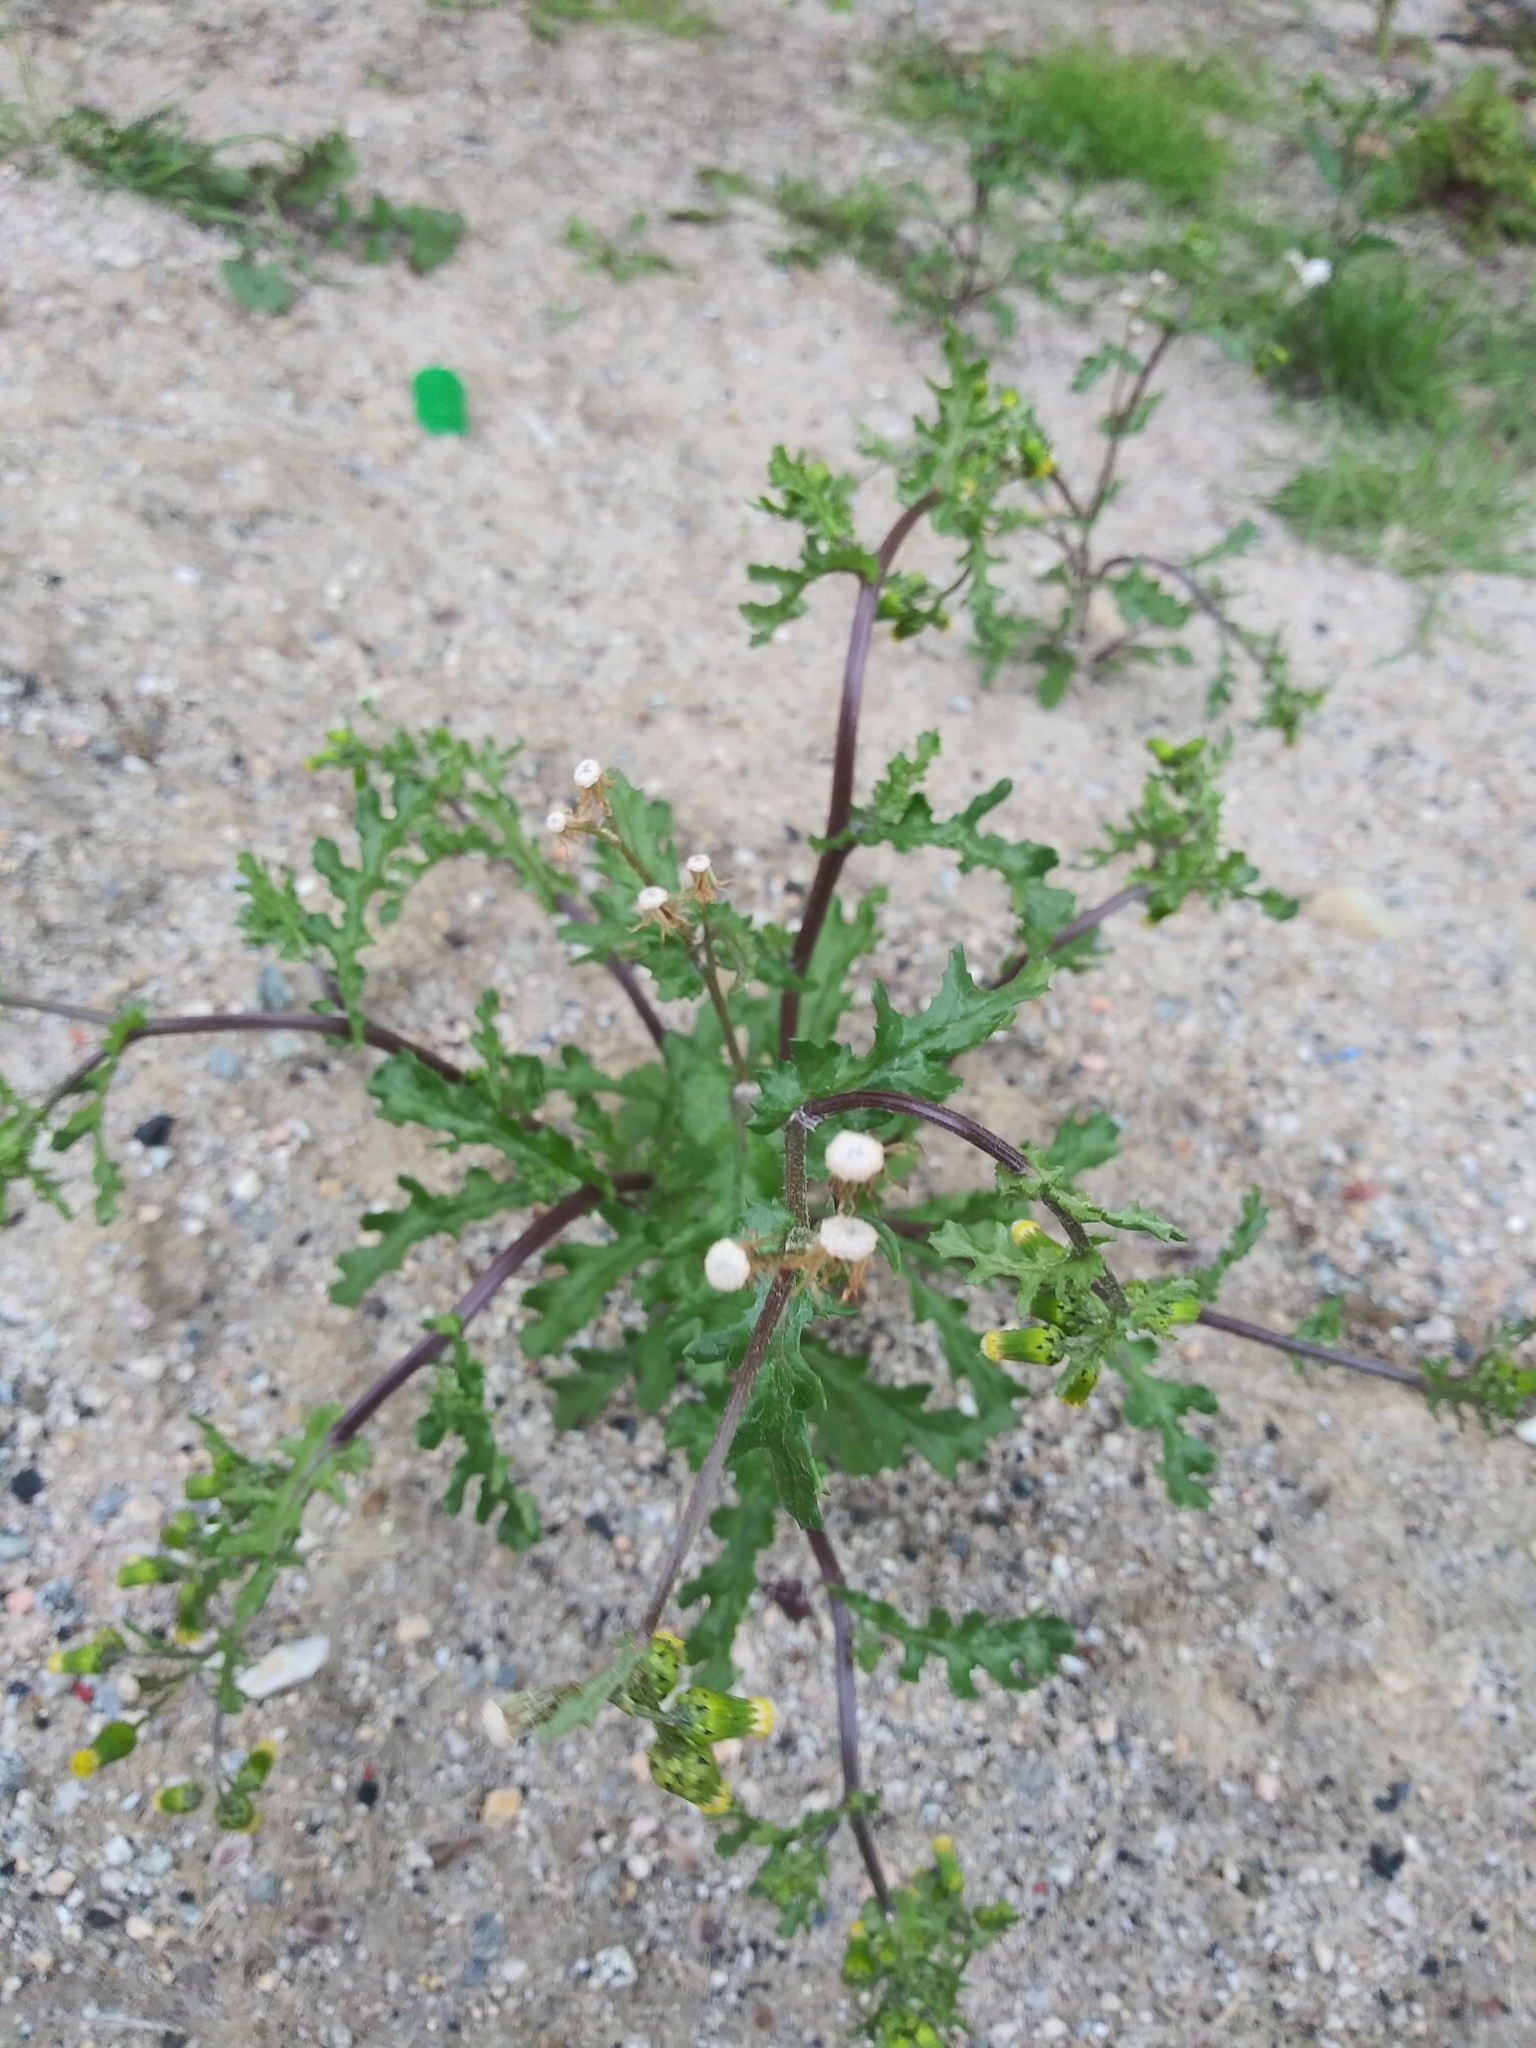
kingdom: Plantae
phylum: Tracheophyta
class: Magnoliopsida
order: Asterales
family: Asteraceae
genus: Senecio
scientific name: Senecio vulgaris
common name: Old-man-in-the-spring
